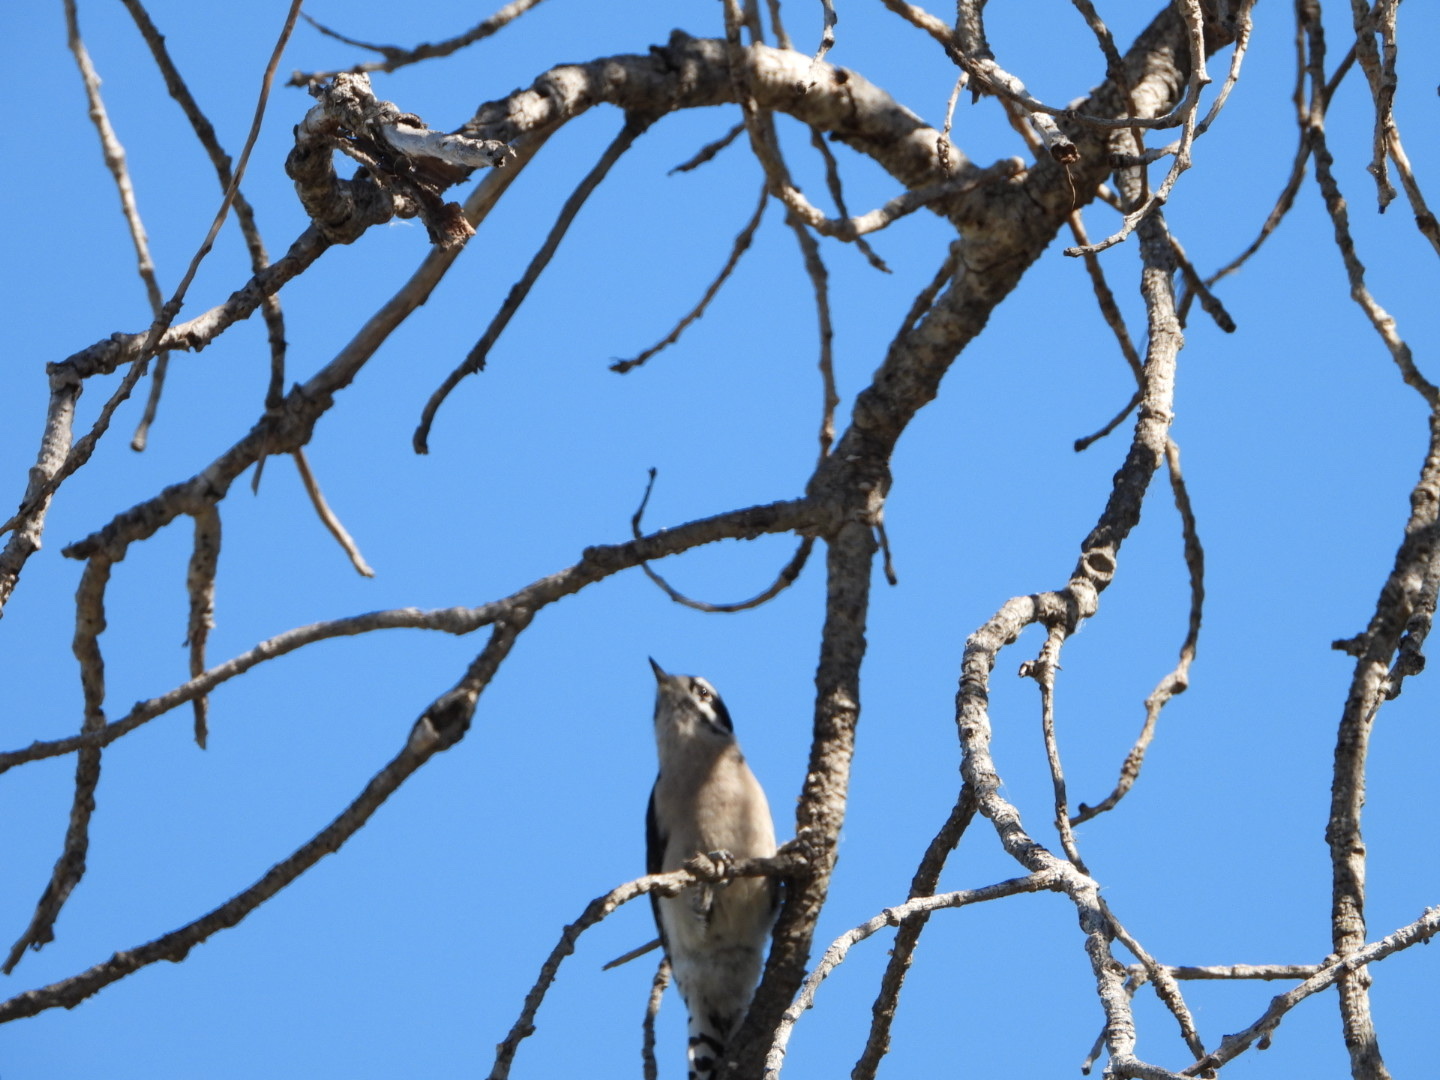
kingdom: Animalia
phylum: Chordata
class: Aves
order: Piciformes
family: Picidae
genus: Dryobates
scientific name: Dryobates pubescens
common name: Downy woodpecker
